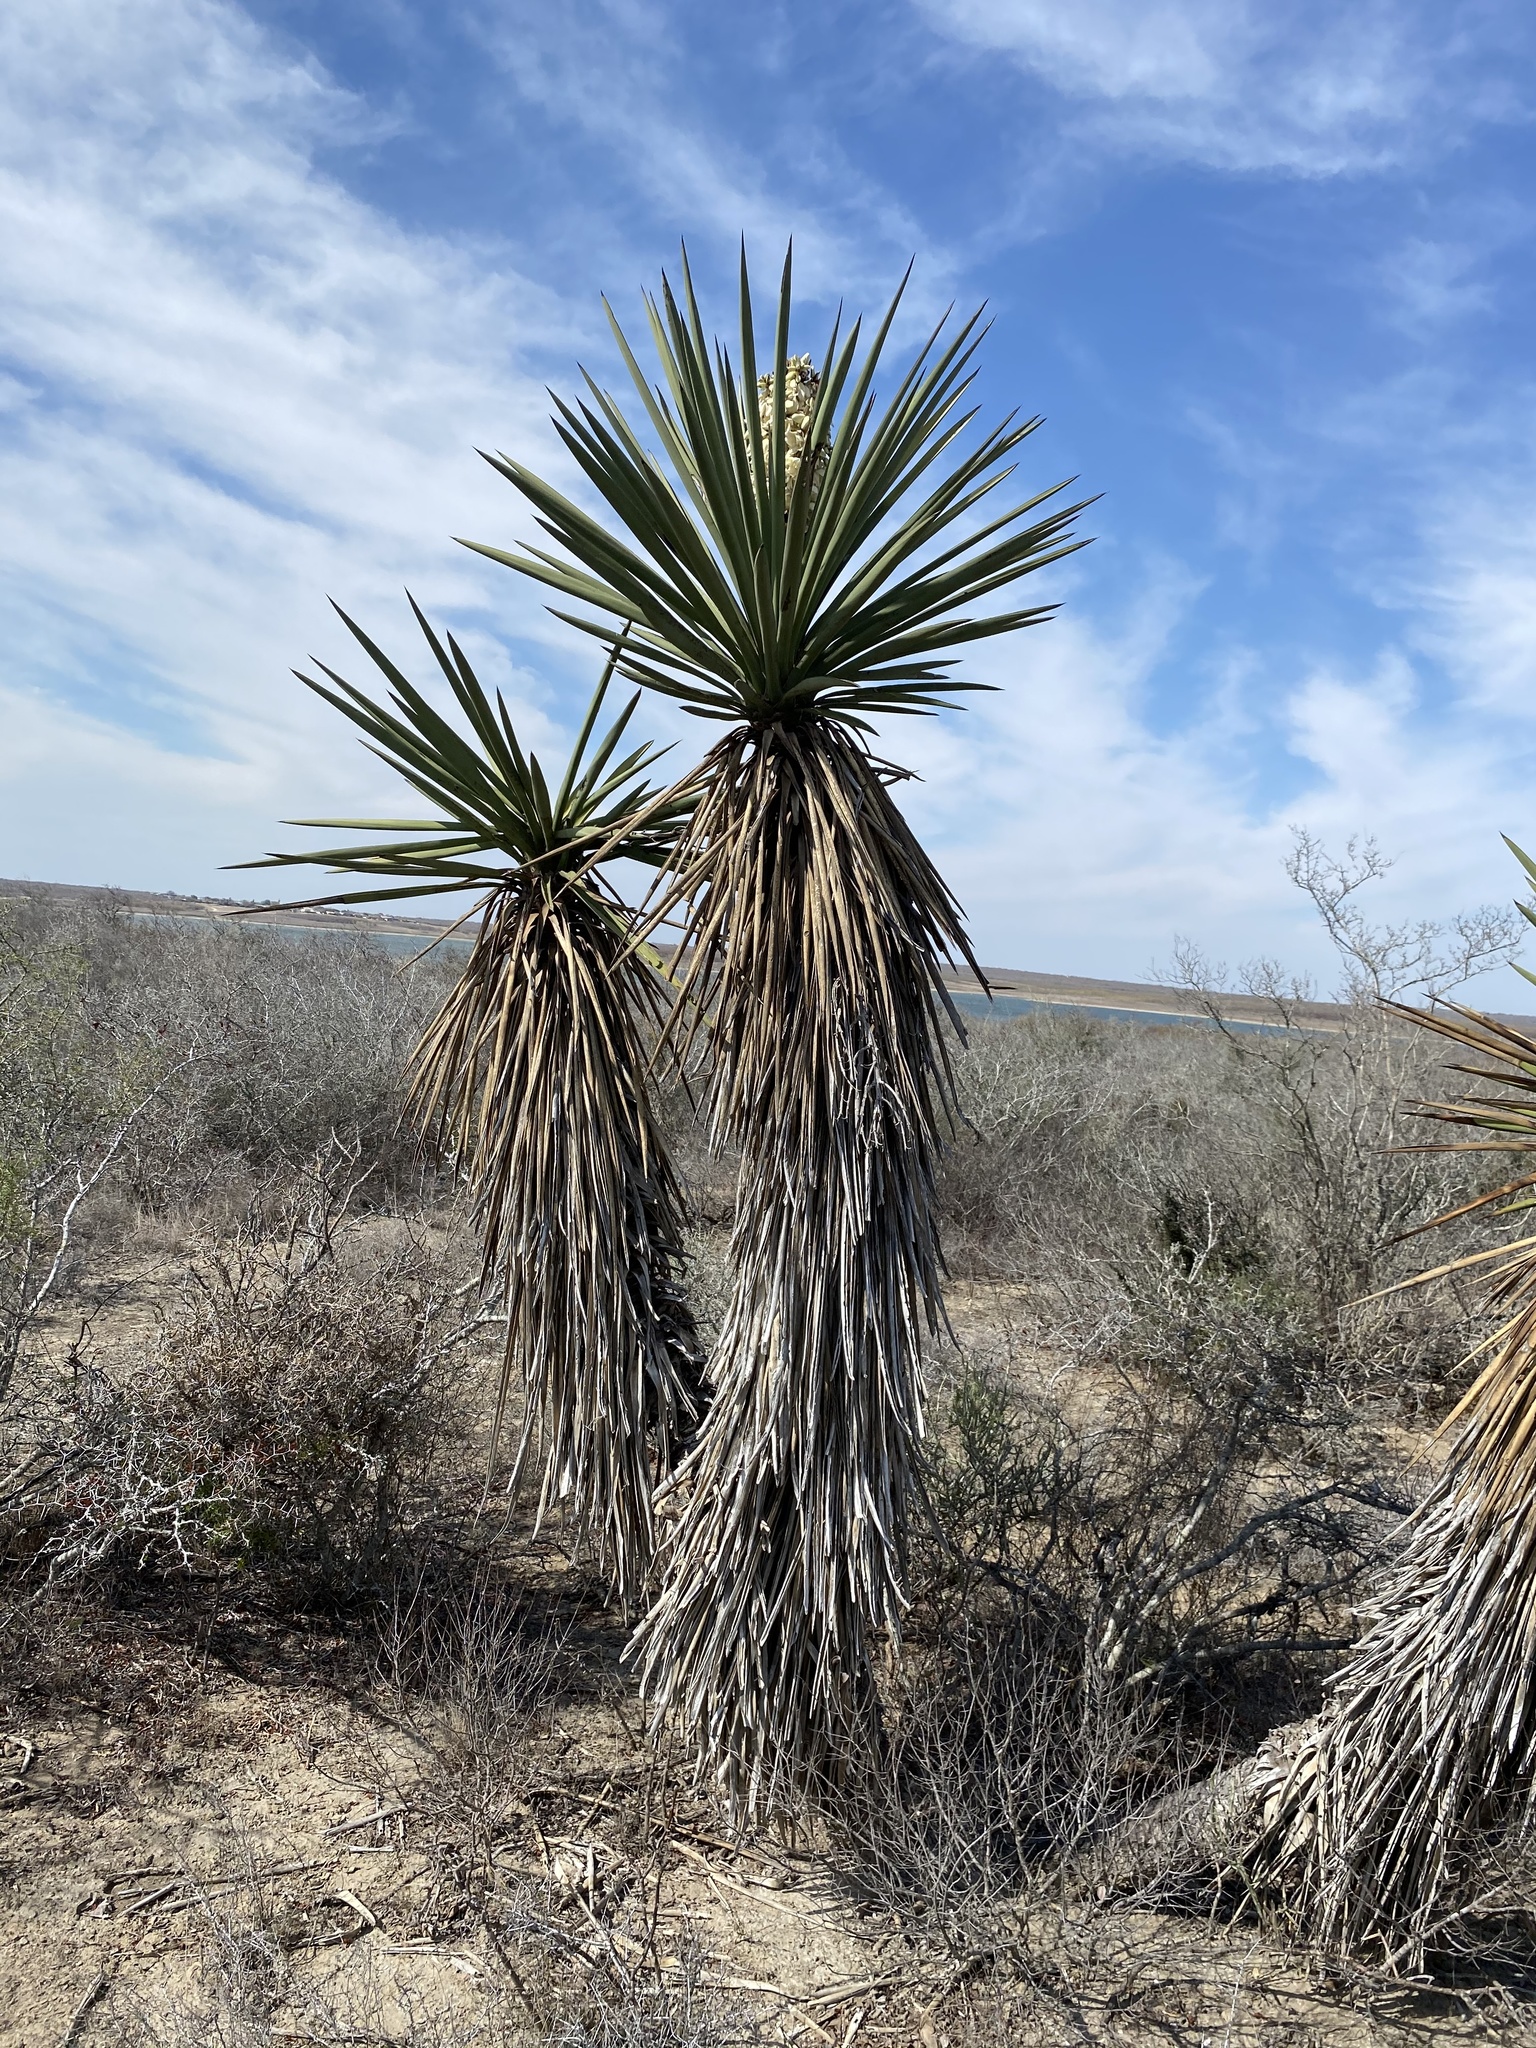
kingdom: Plantae
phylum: Tracheophyta
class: Liliopsida
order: Asparagales
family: Asparagaceae
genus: Yucca
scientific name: Yucca treculiana
